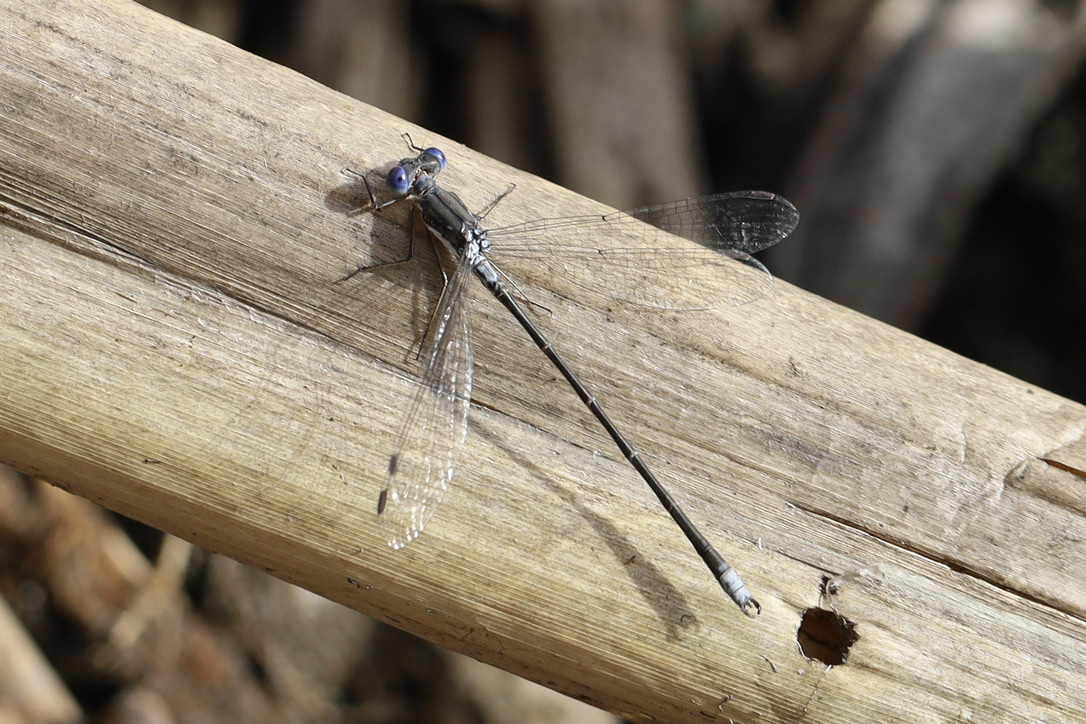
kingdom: Animalia
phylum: Arthropoda
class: Insecta
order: Odonata
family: Lestidae
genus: Lestes
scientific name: Lestes congener
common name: Spotted spreadwing
